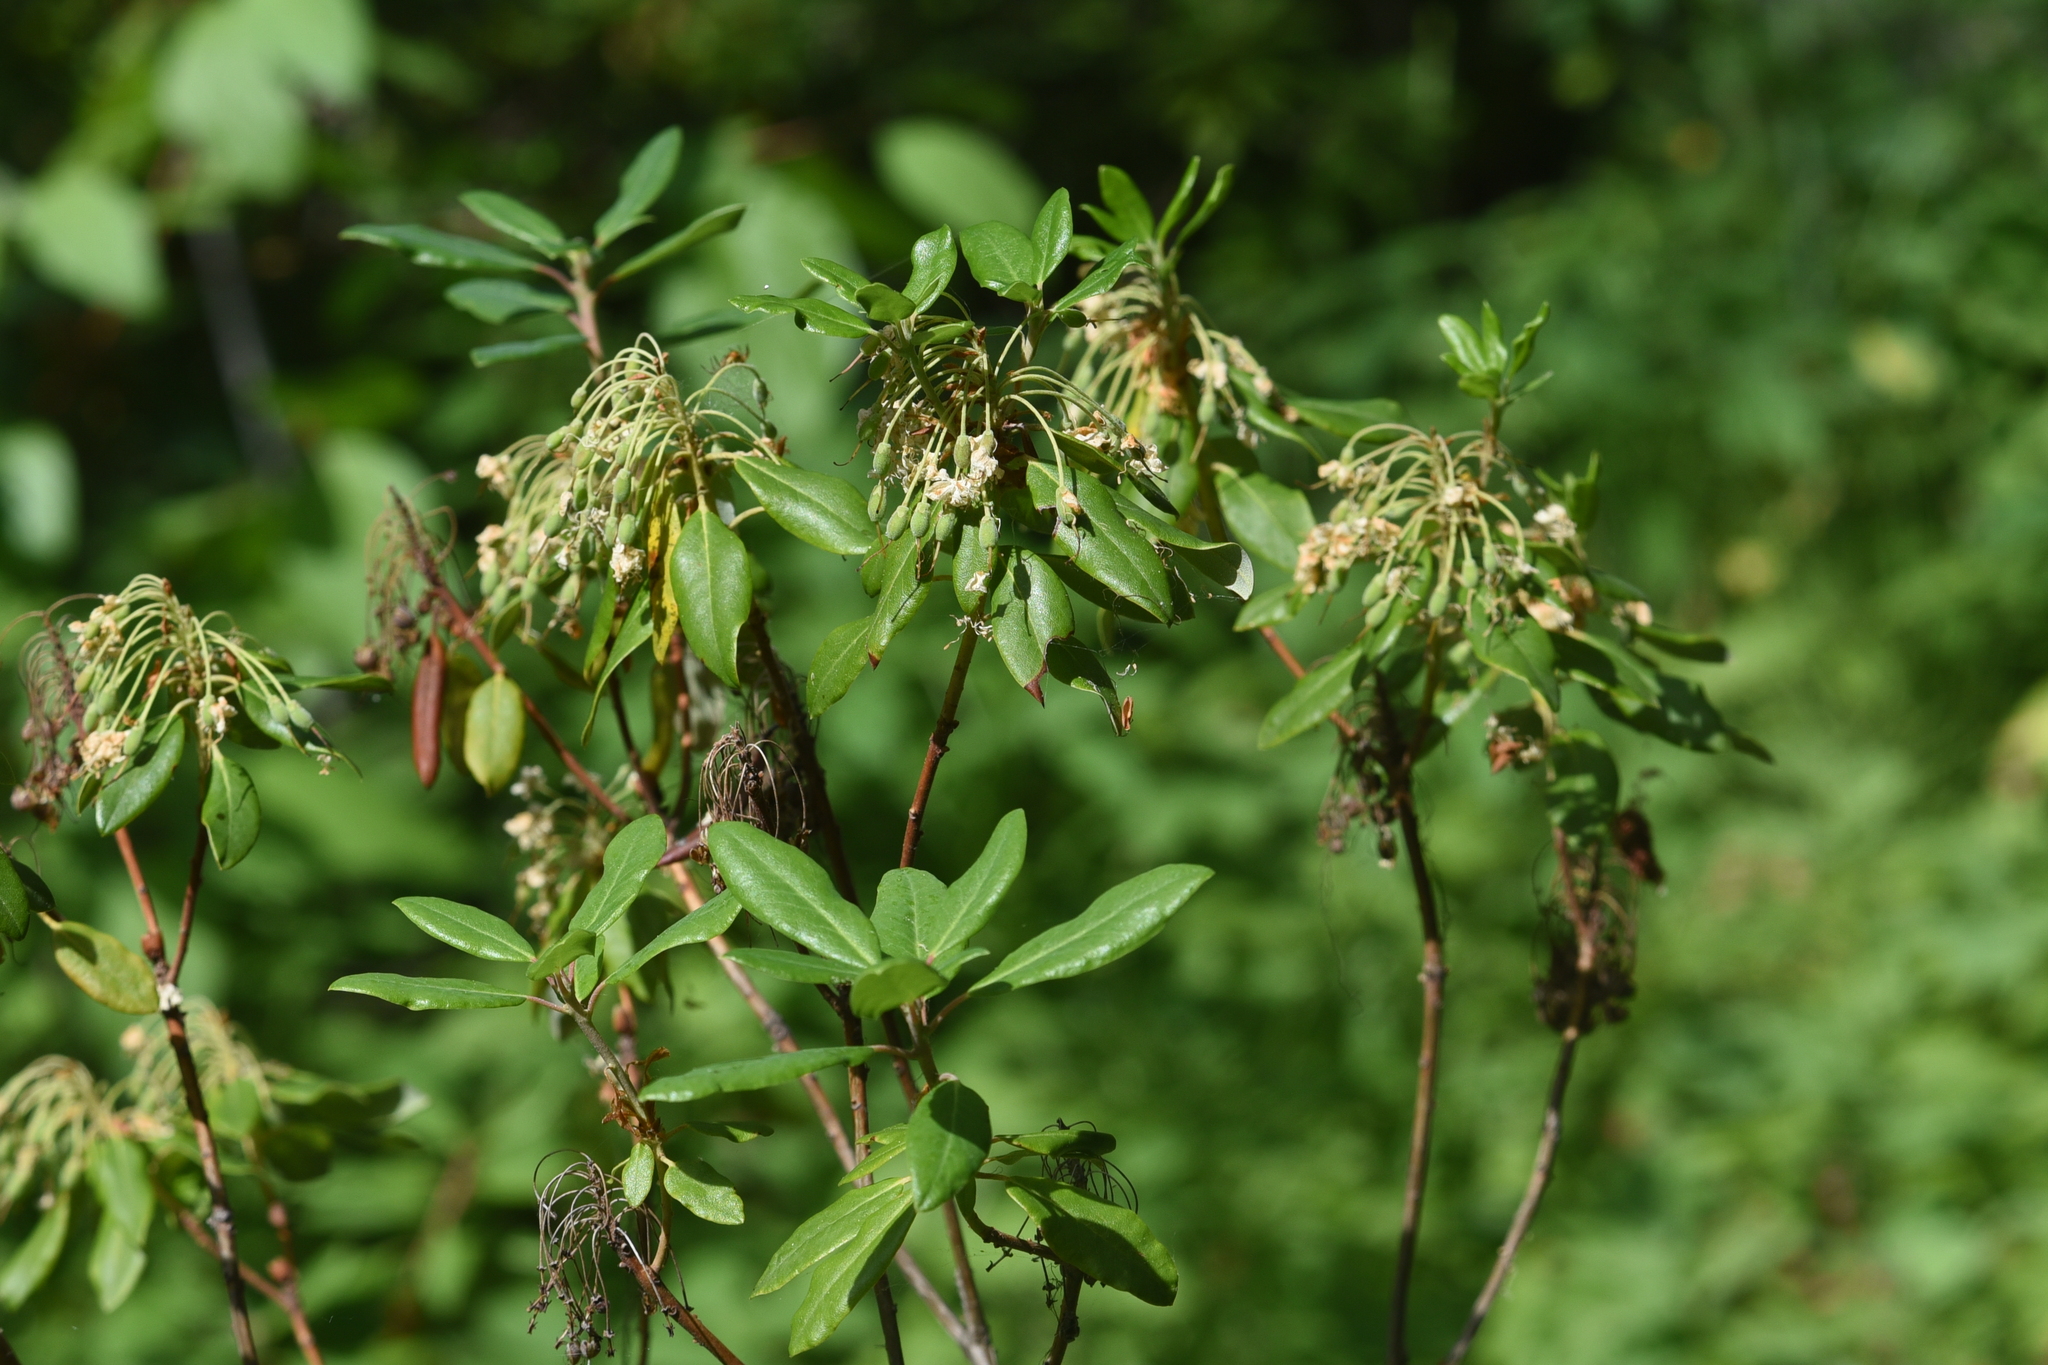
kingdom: Plantae
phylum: Tracheophyta
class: Magnoliopsida
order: Ericales
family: Ericaceae
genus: Rhododendron
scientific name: Rhododendron columbianum
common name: Western labrador tea
